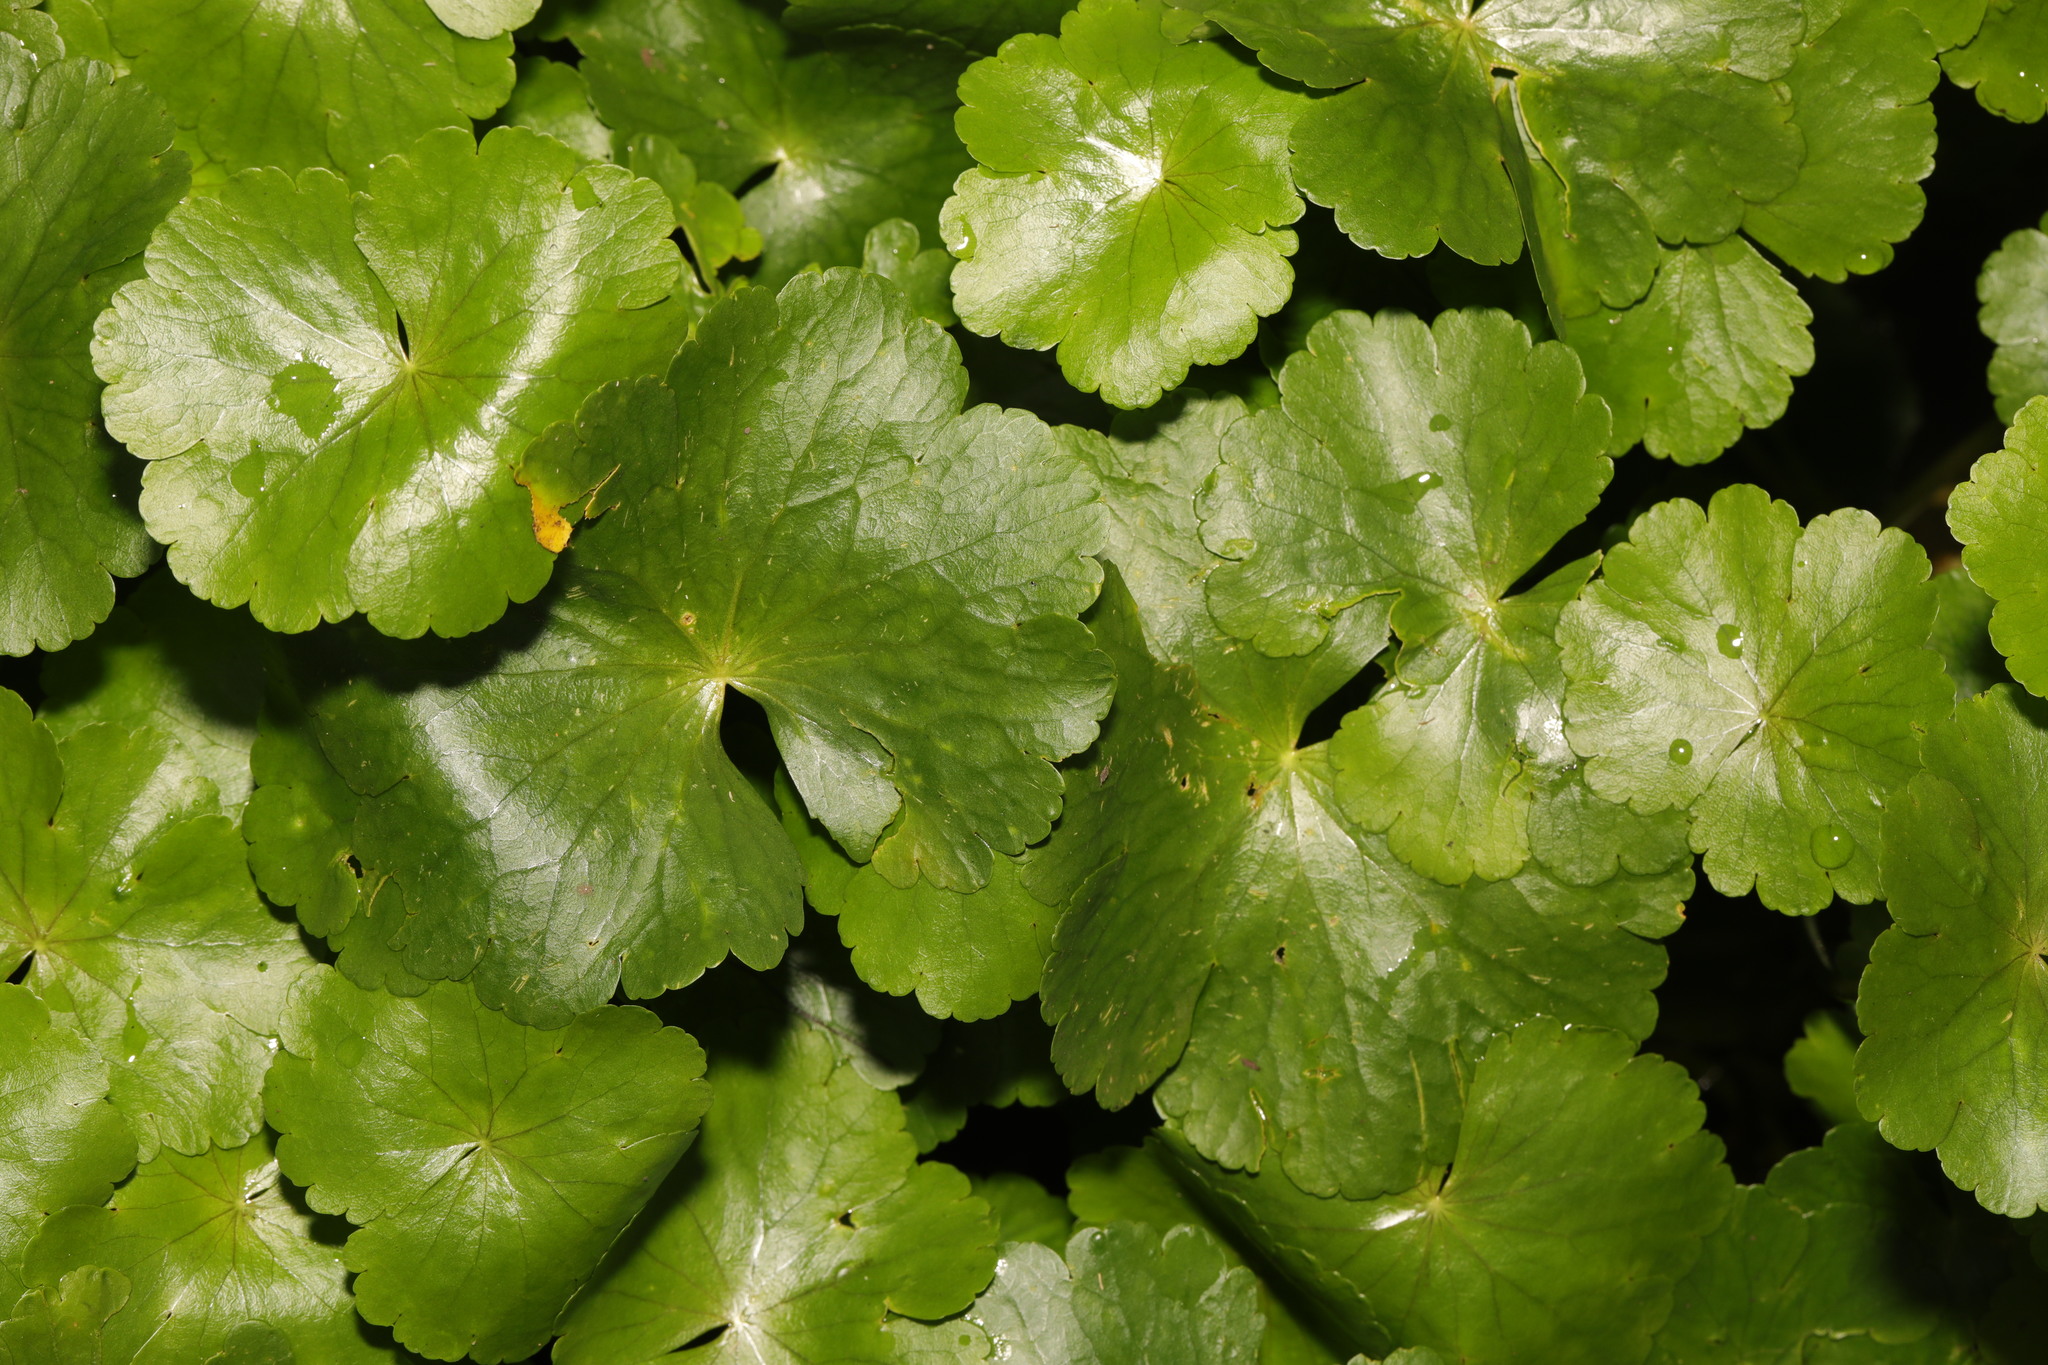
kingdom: Plantae
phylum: Tracheophyta
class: Magnoliopsida
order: Apiales
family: Araliaceae
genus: Hydrocotyle
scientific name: Hydrocotyle ranunculoides
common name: Floating pennywort
